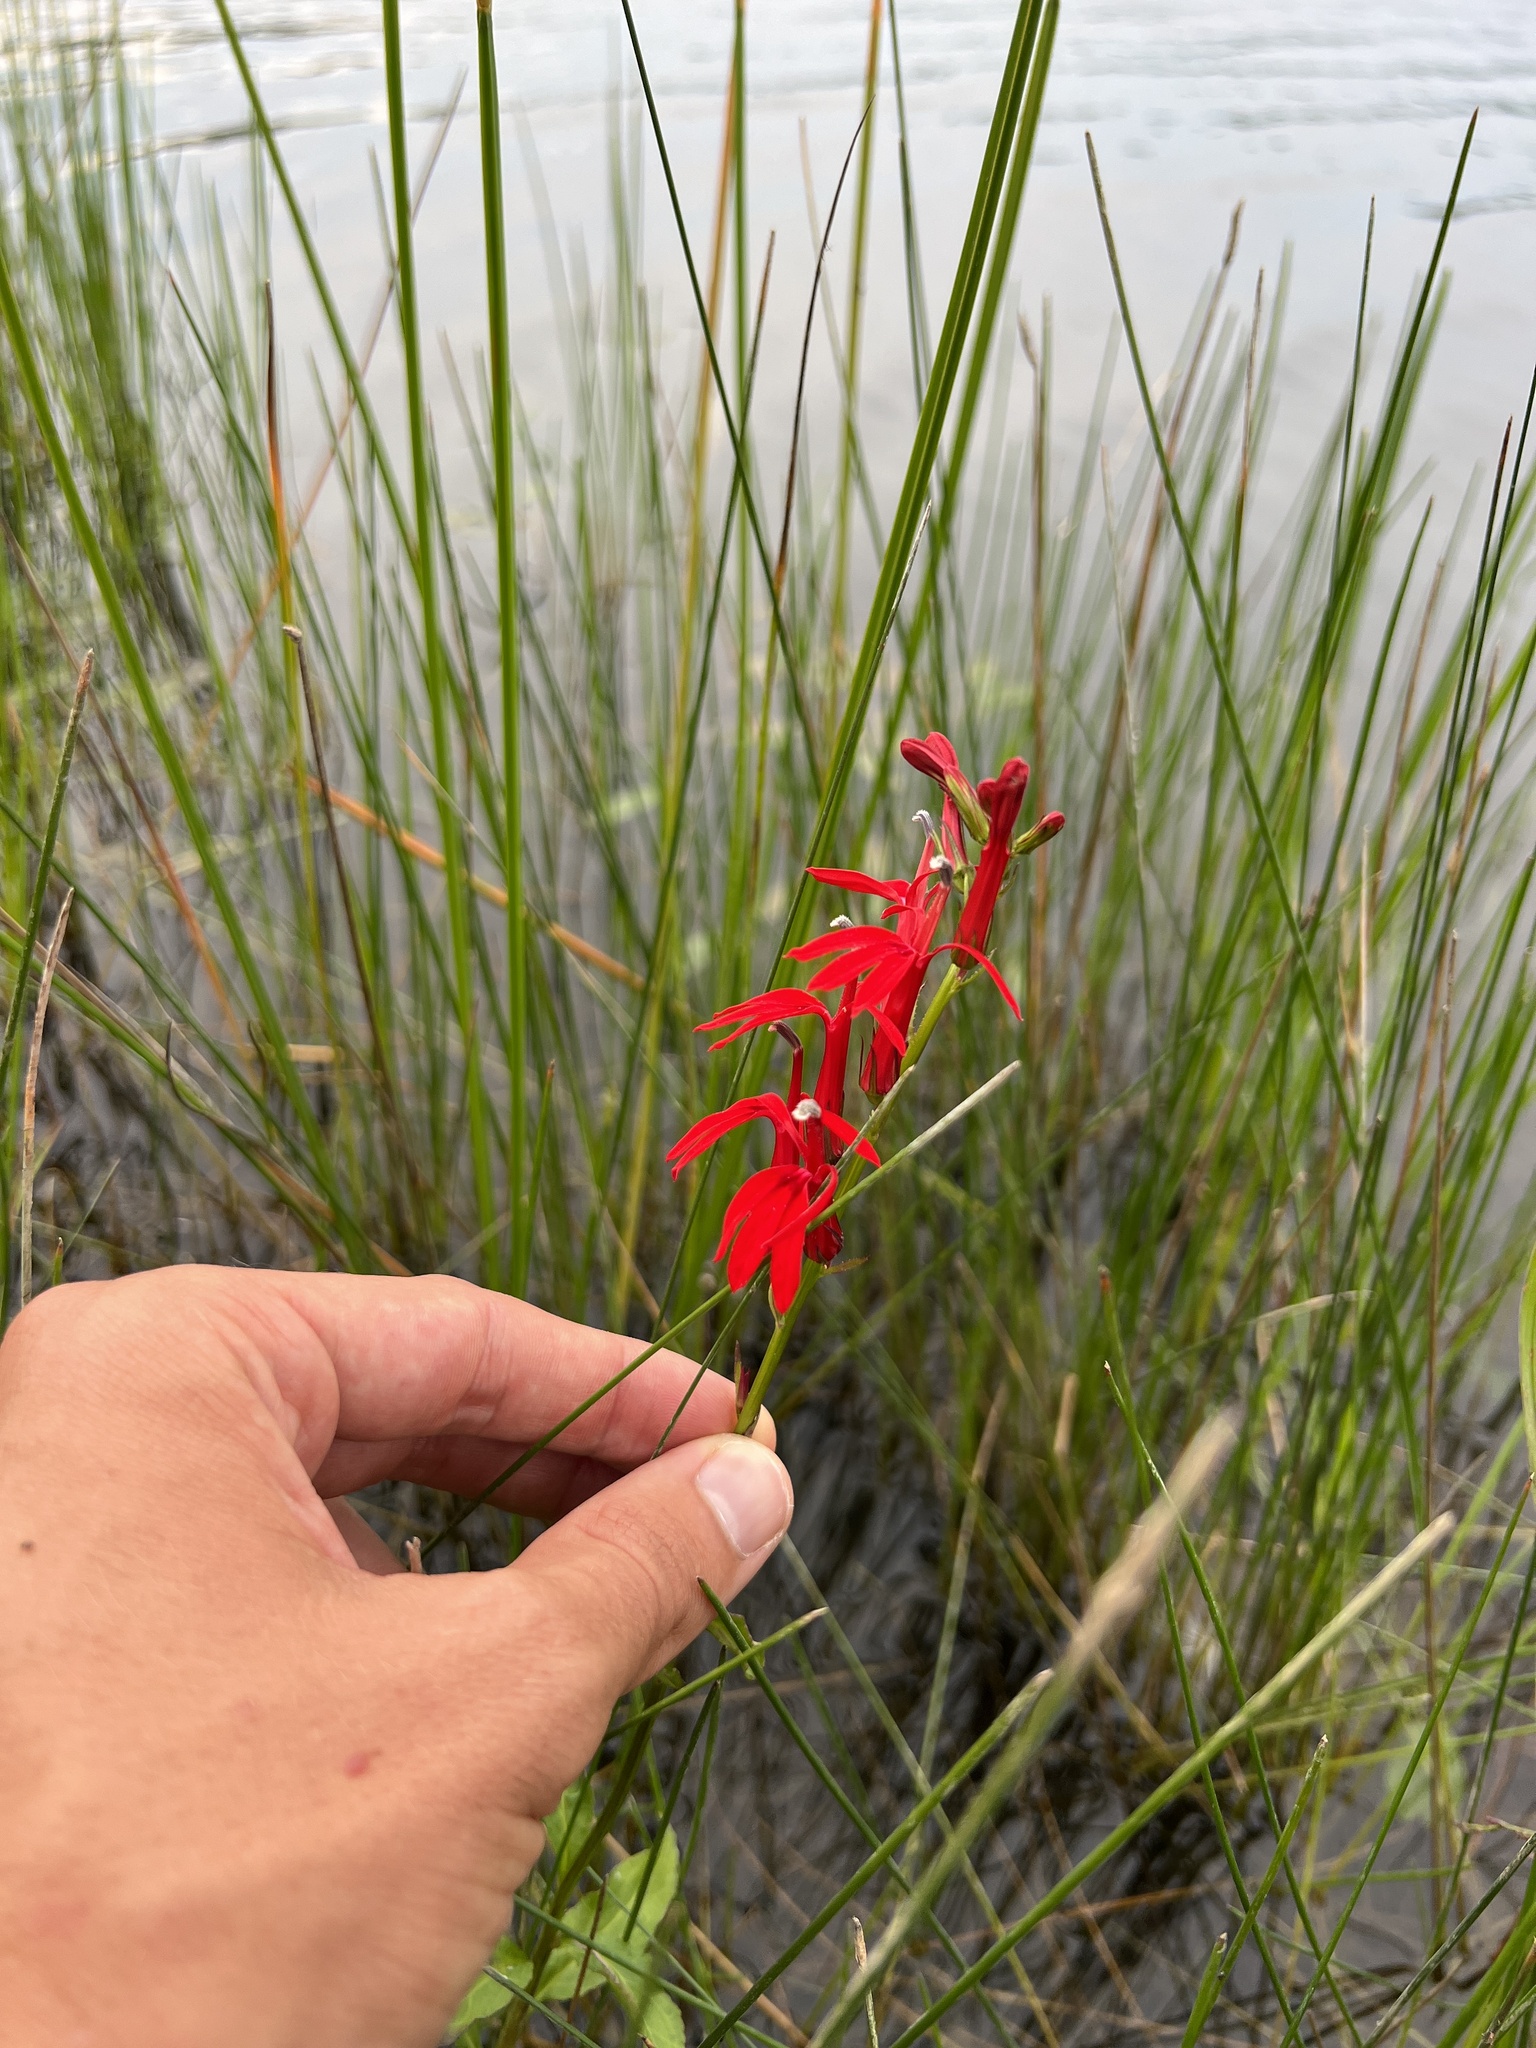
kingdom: Plantae
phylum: Tracheophyta
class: Magnoliopsida
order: Asterales
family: Campanulaceae
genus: Lobelia
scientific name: Lobelia cardinalis
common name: Cardinal flower
